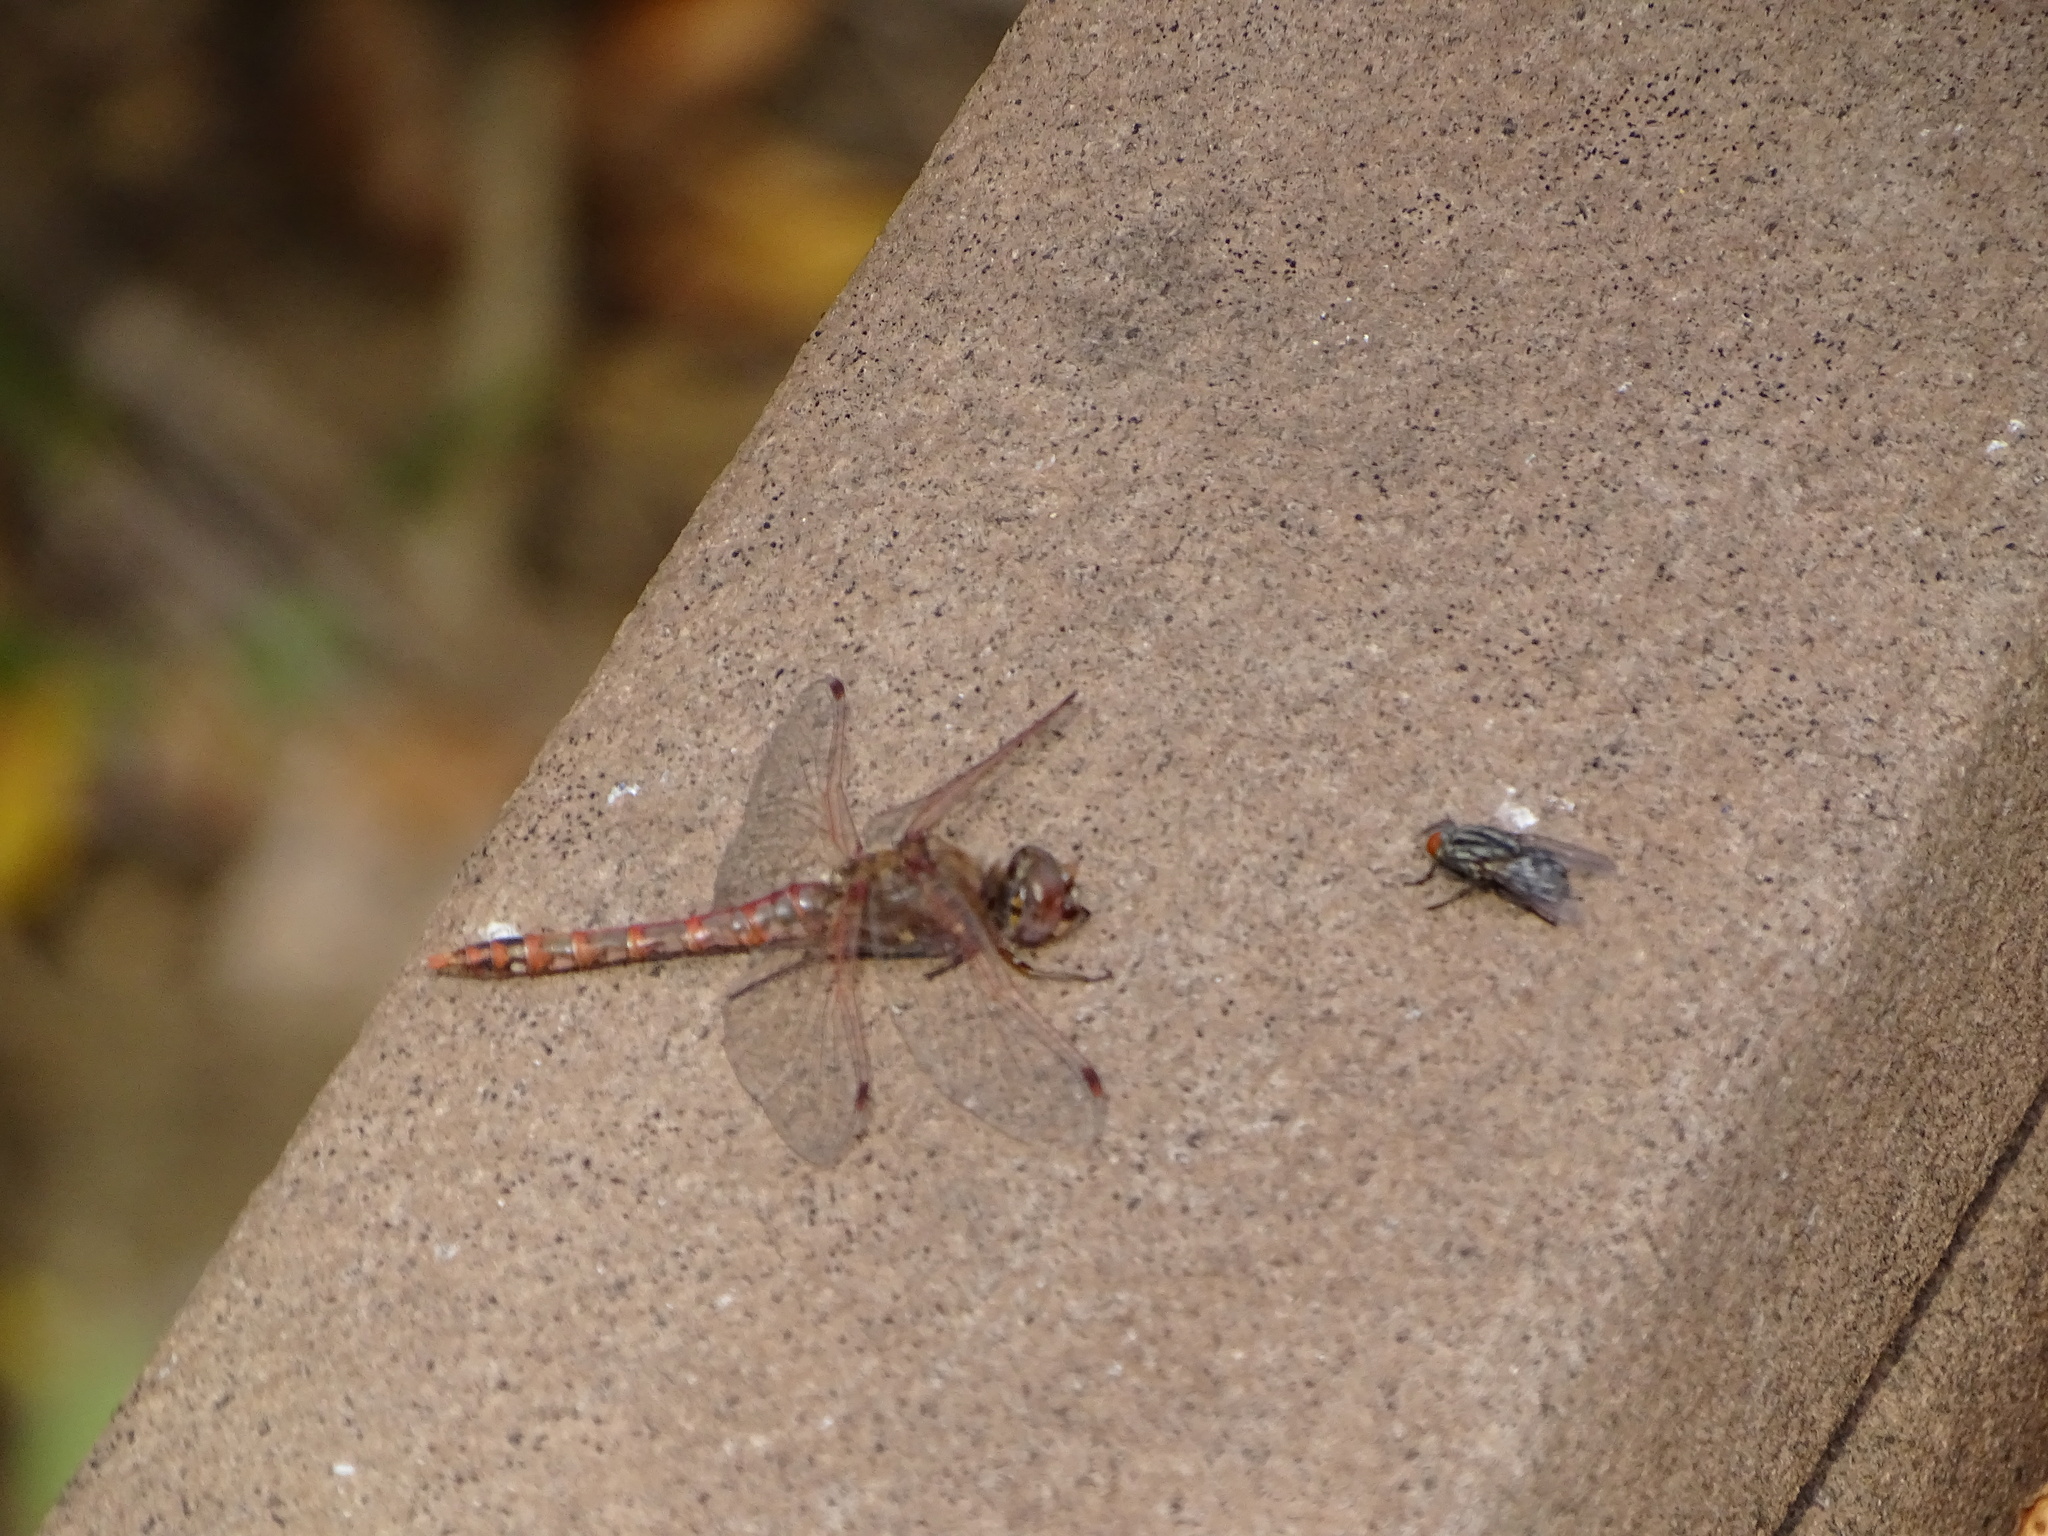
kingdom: Animalia
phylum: Arthropoda
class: Insecta
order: Odonata
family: Libellulidae
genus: Sympetrum
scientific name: Sympetrum corruptum
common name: Variegated meadowhawk
